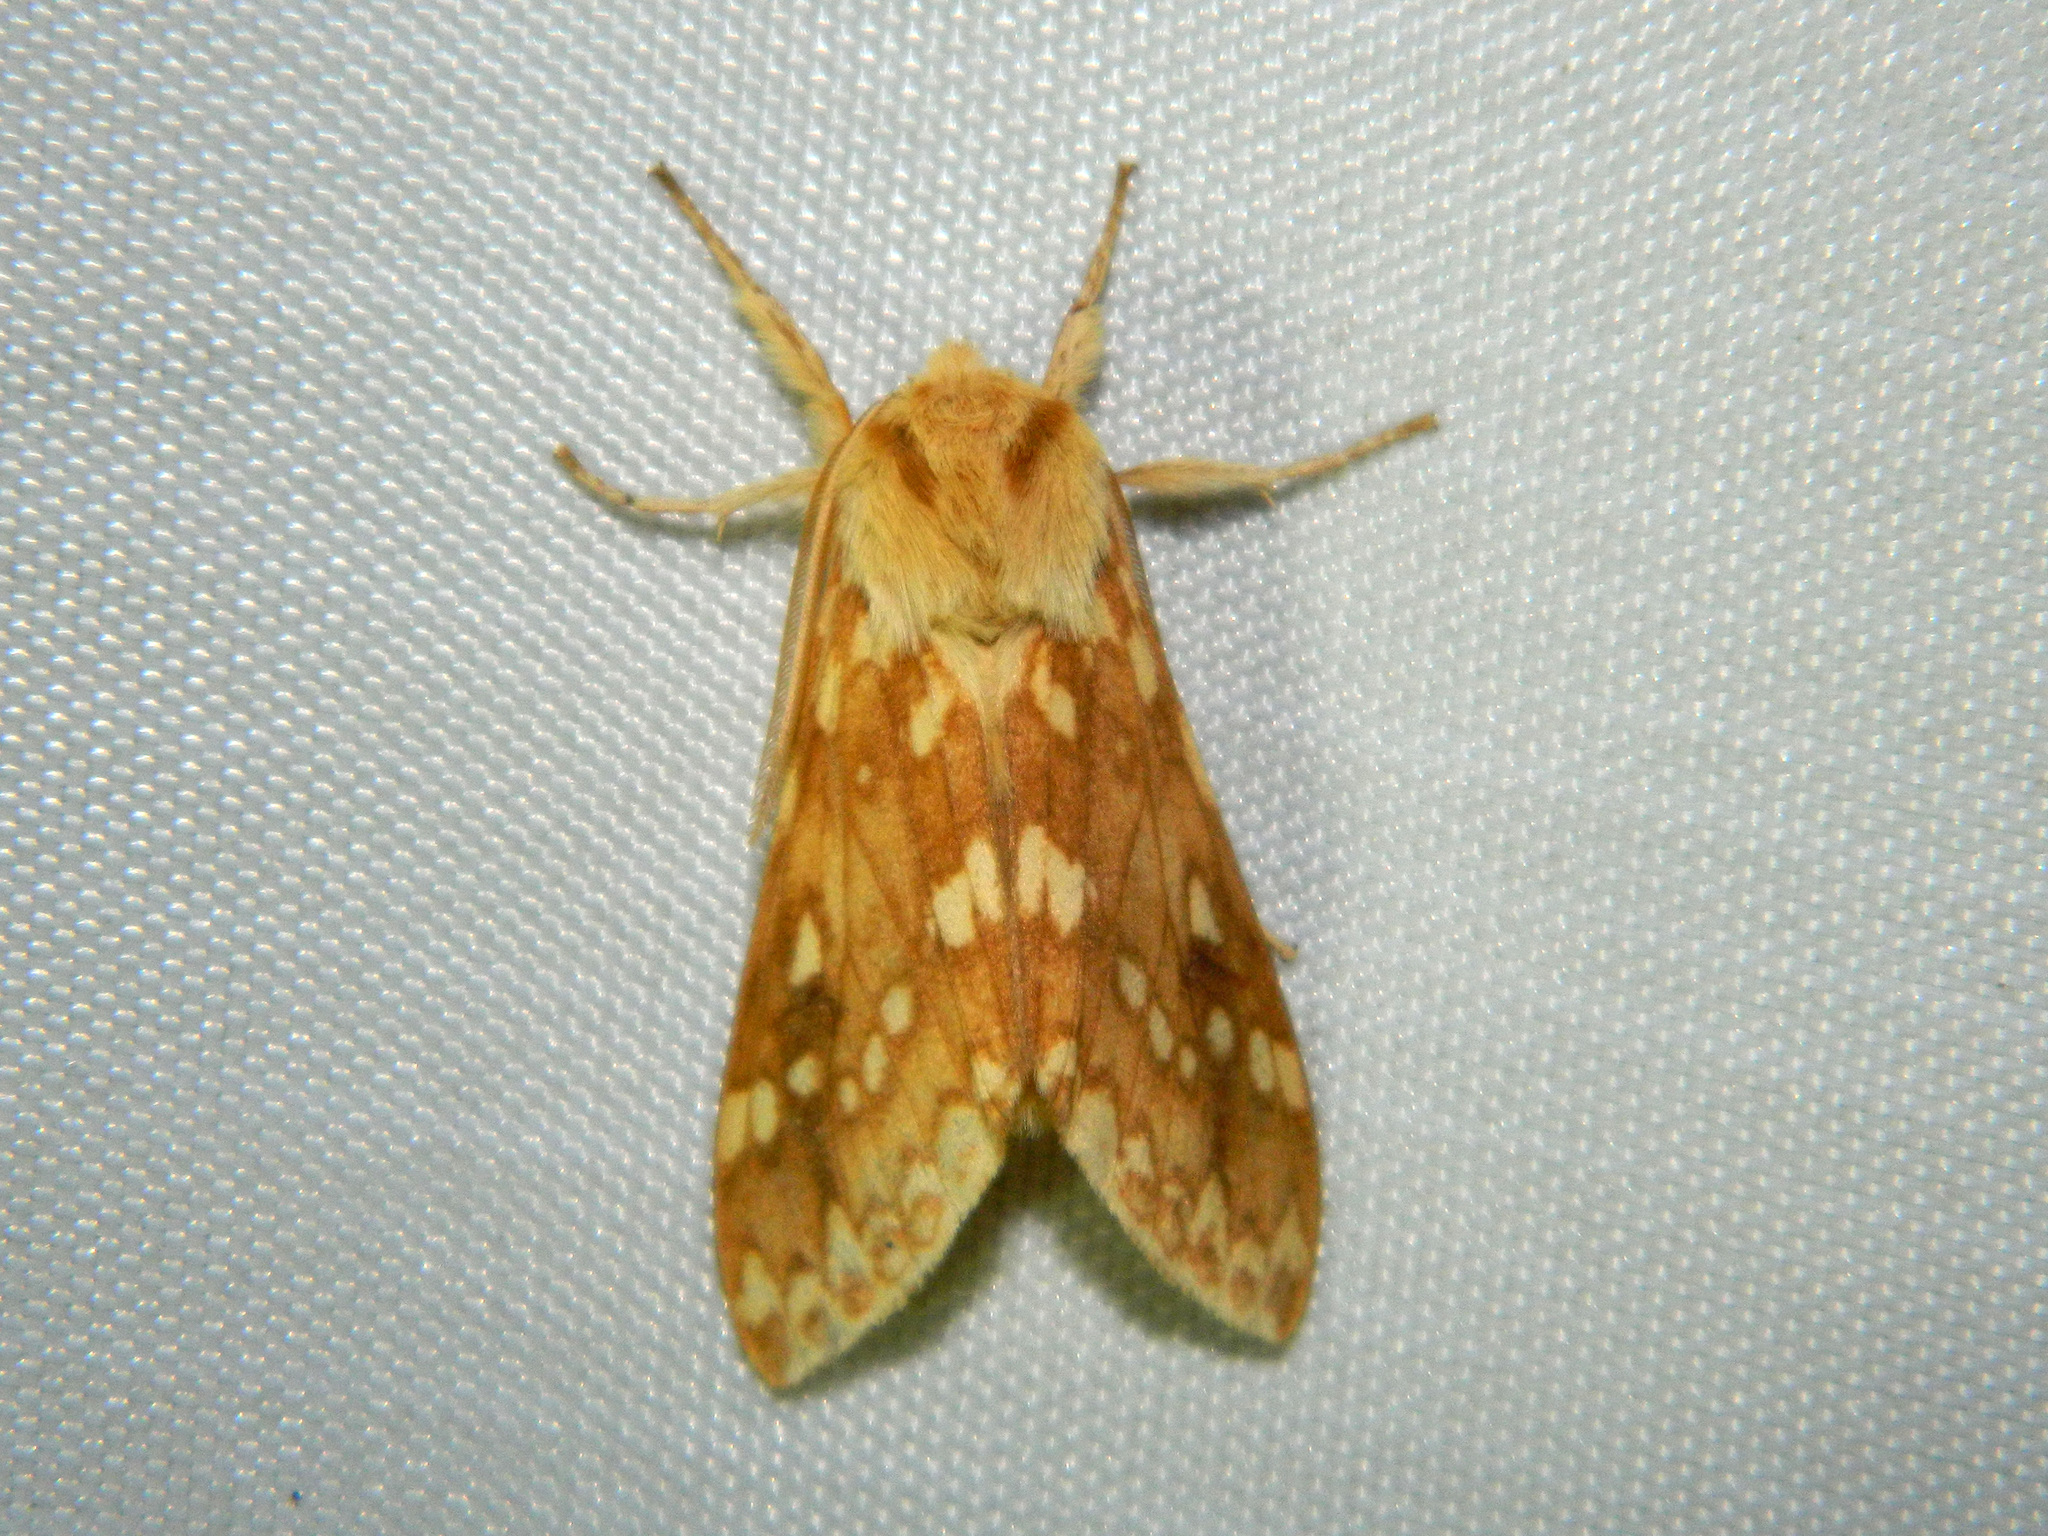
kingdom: Animalia
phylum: Arthropoda
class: Insecta
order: Lepidoptera
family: Erebidae
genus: Lophocampa
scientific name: Lophocampa maculata
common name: Spotted tussock moth
